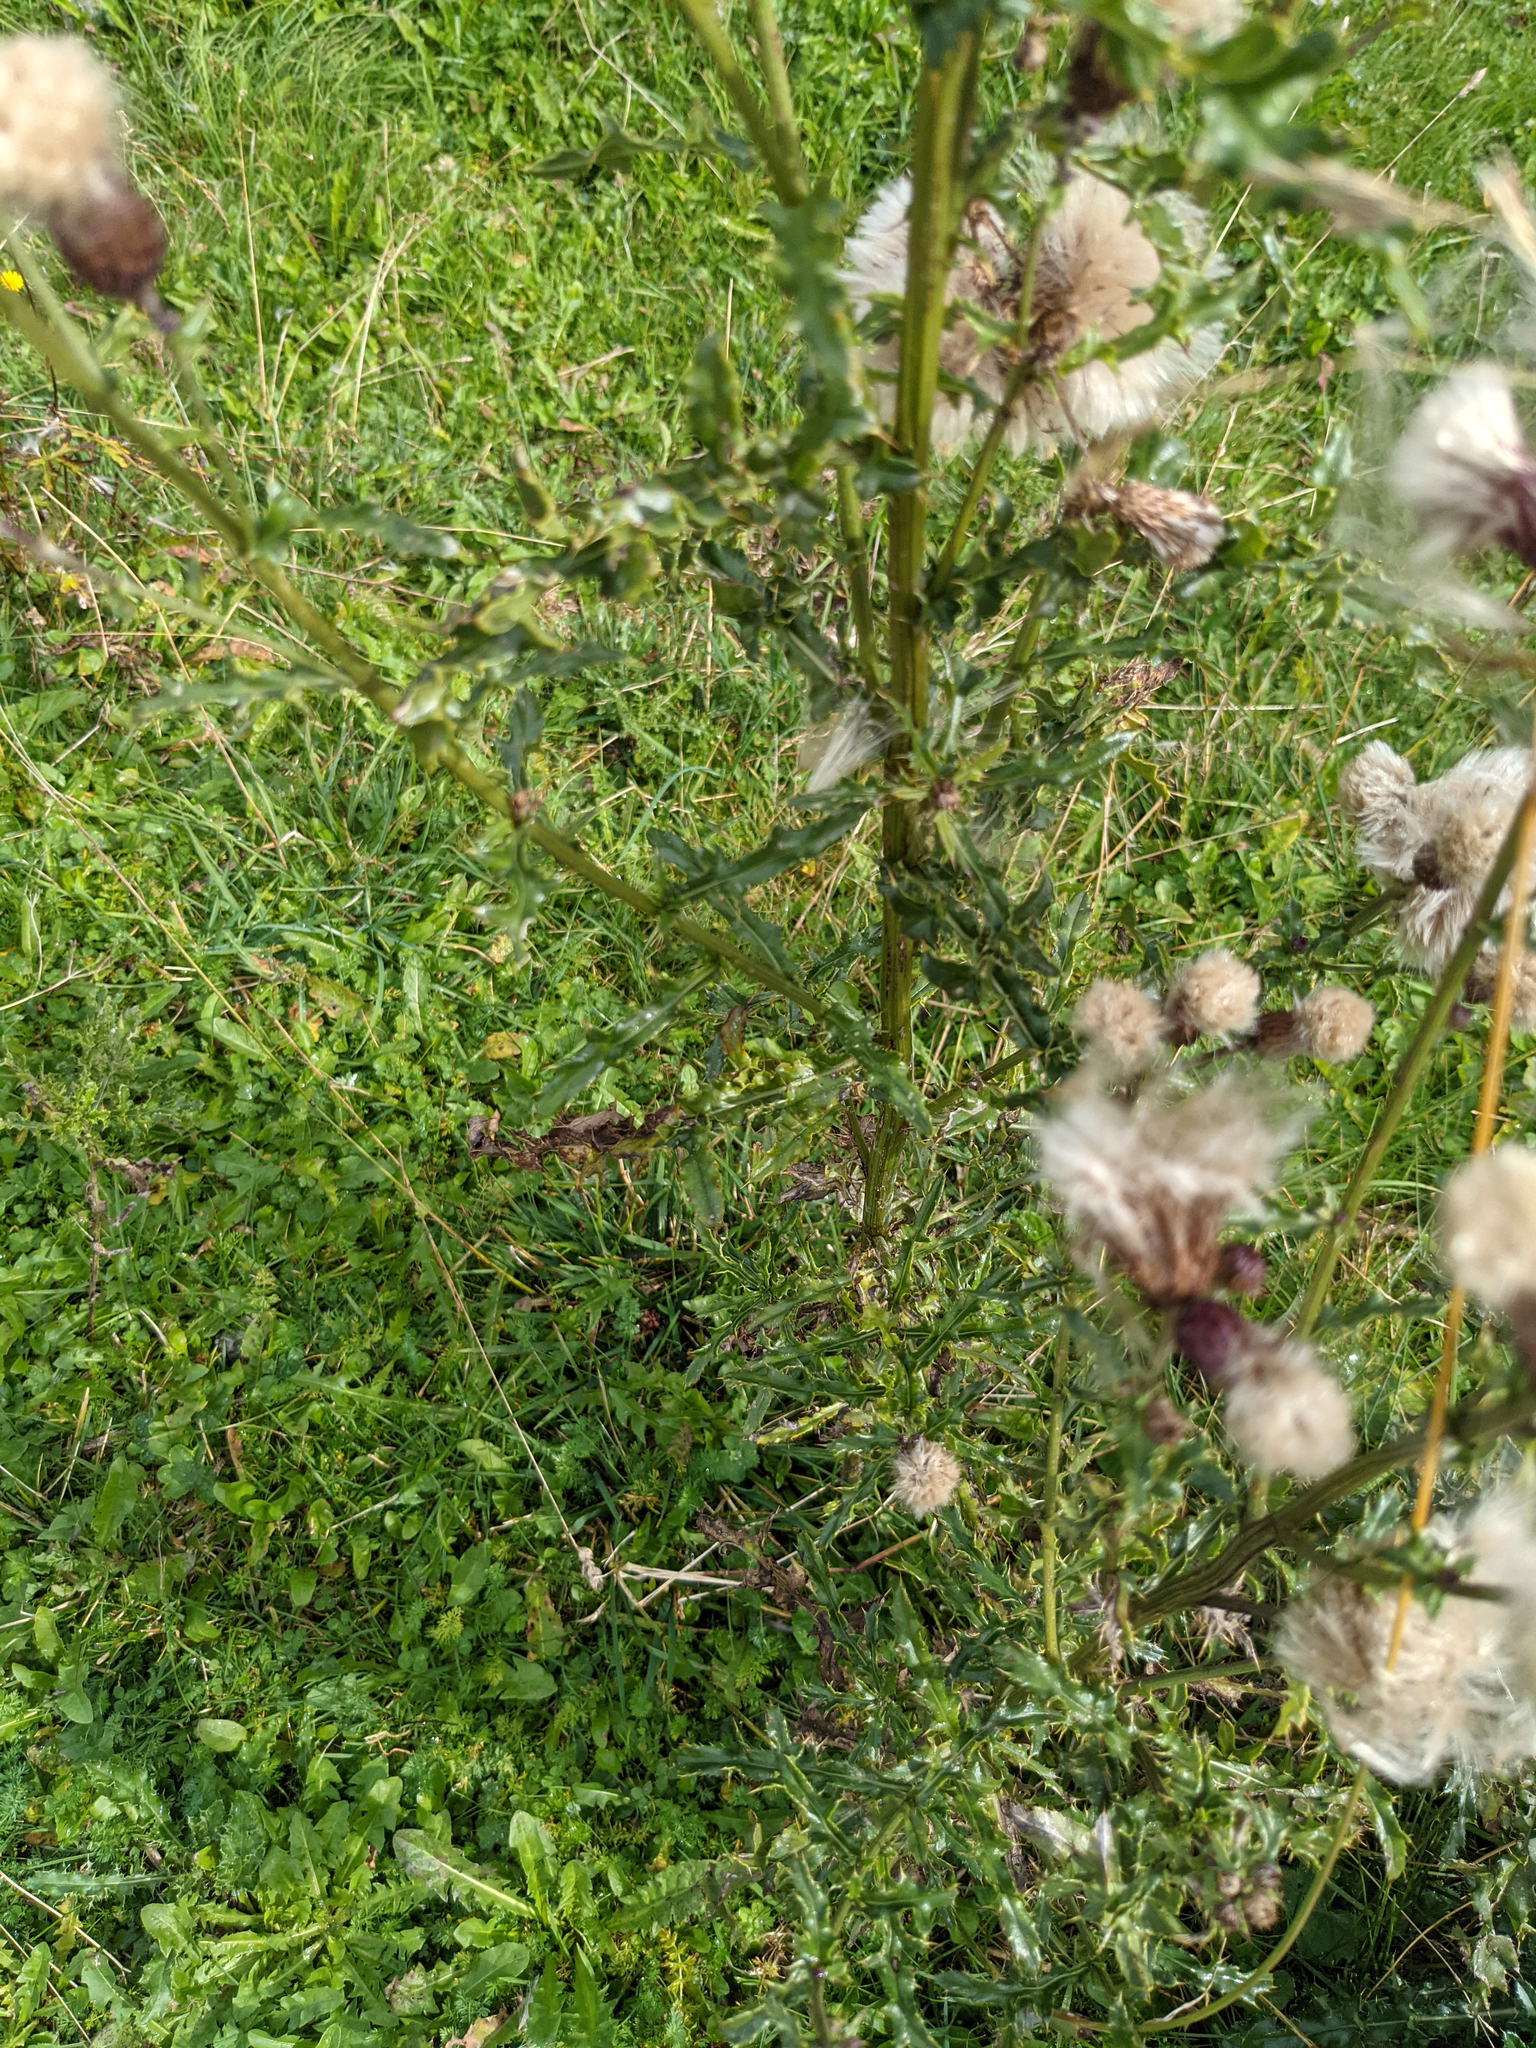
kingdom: Plantae
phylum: Tracheophyta
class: Magnoliopsida
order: Asterales
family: Asteraceae
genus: Cirsium
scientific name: Cirsium arvense
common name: Creeping thistle
